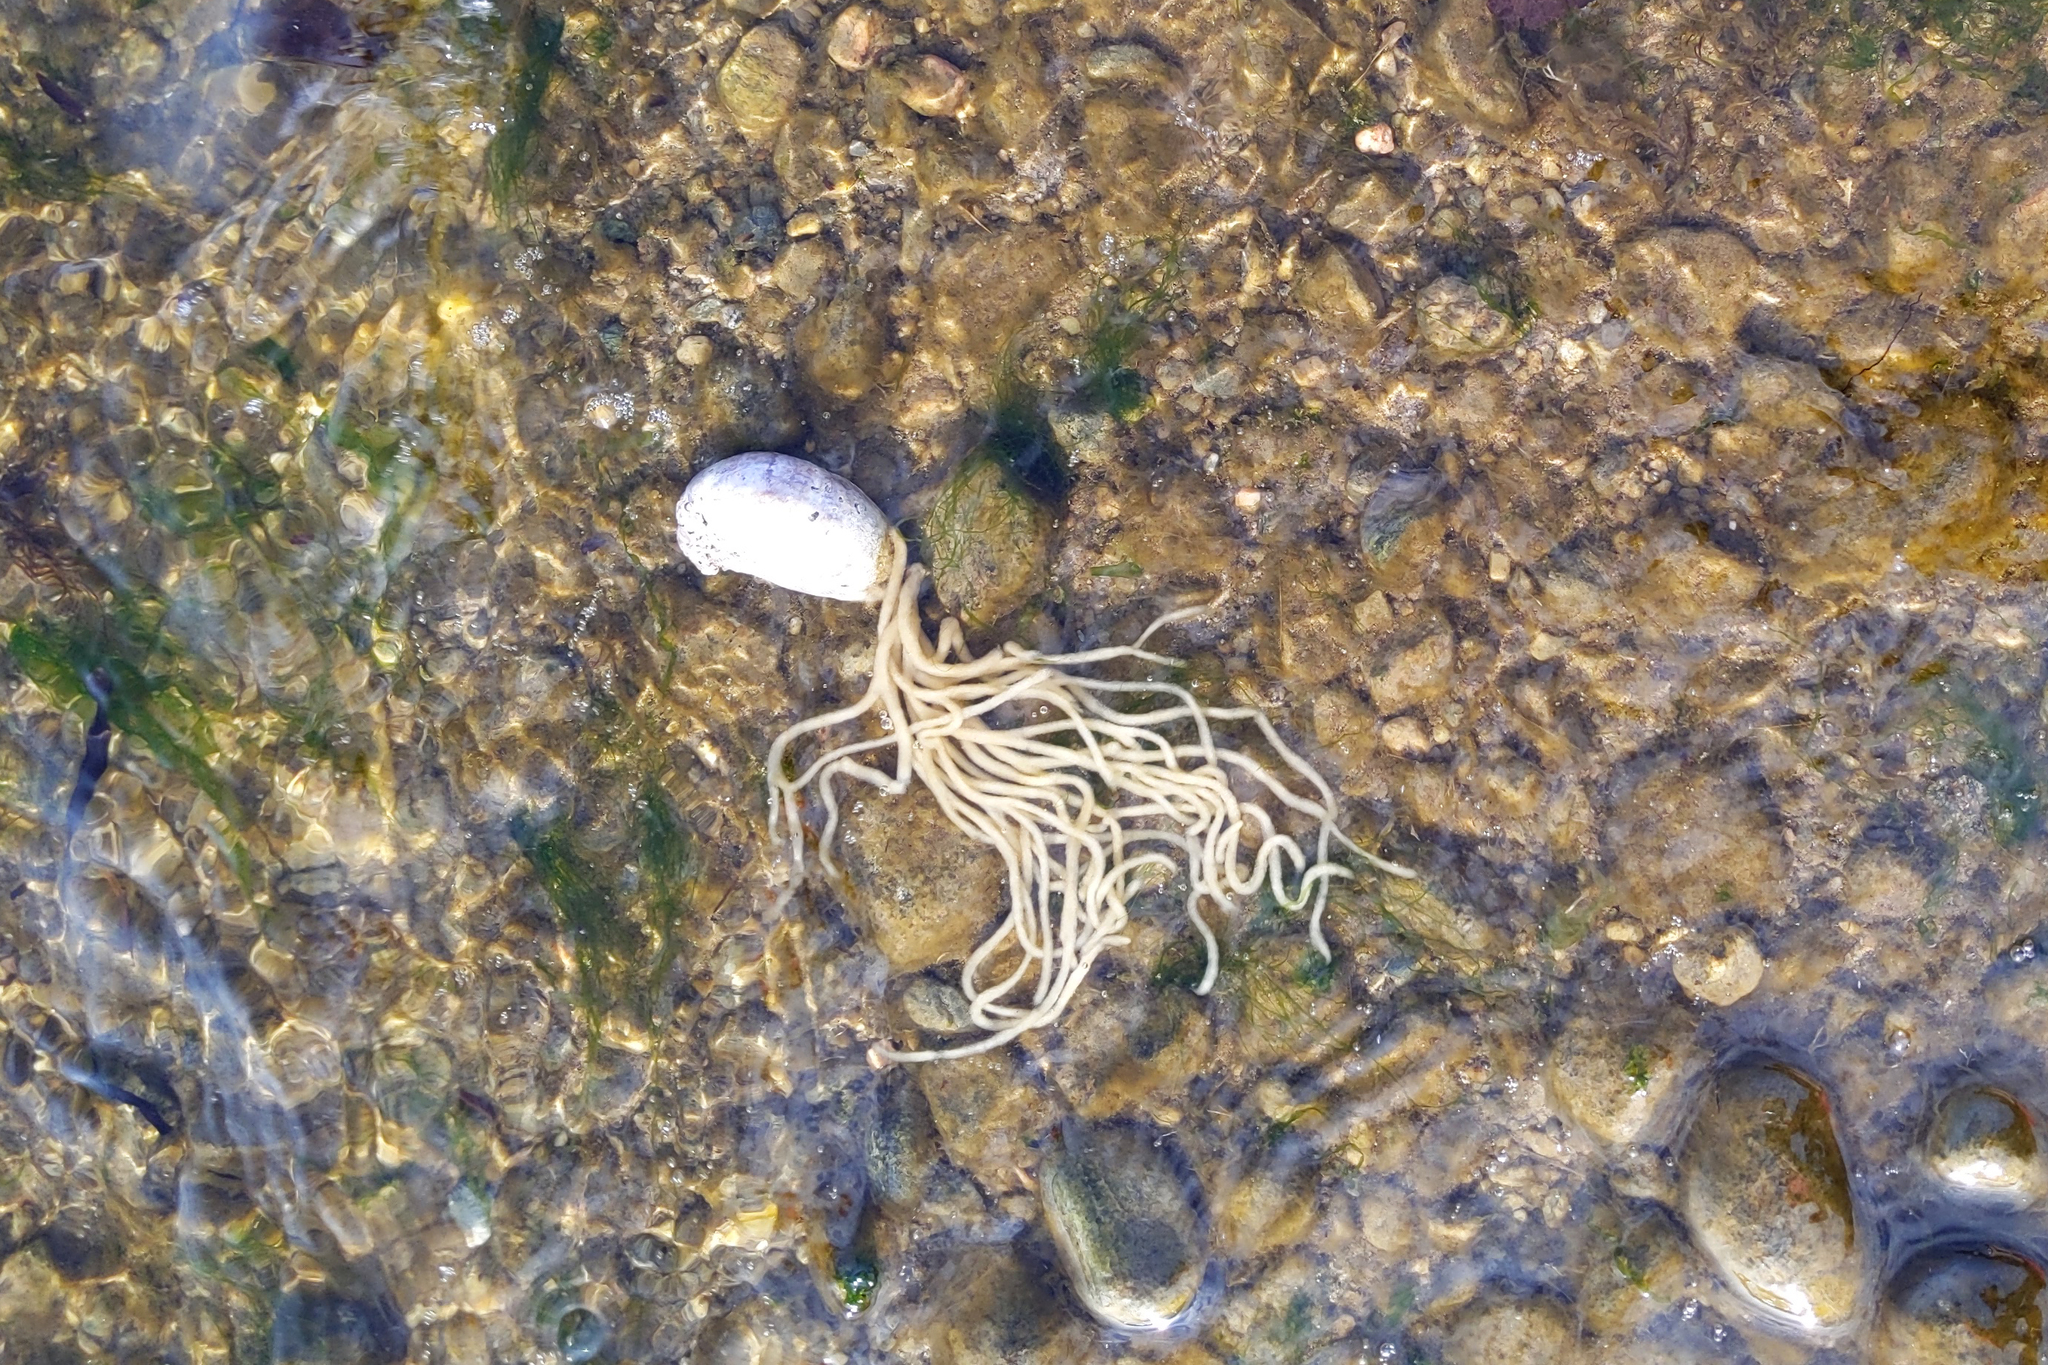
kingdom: Plantae
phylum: Chlorophyta
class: Ulvophyceae
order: Bryopsidales
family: Codiaceae
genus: Codium
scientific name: Codium fragile
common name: Dead man's fingers
